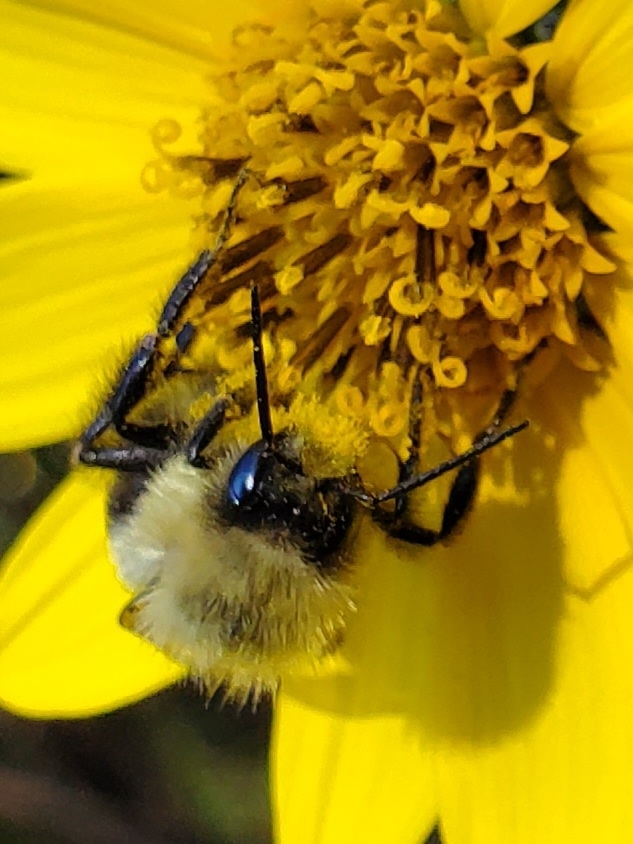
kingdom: Animalia
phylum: Arthropoda
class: Insecta
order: Hymenoptera
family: Apidae
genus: Bombus
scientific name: Bombus impatiens
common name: Common eastern bumble bee
